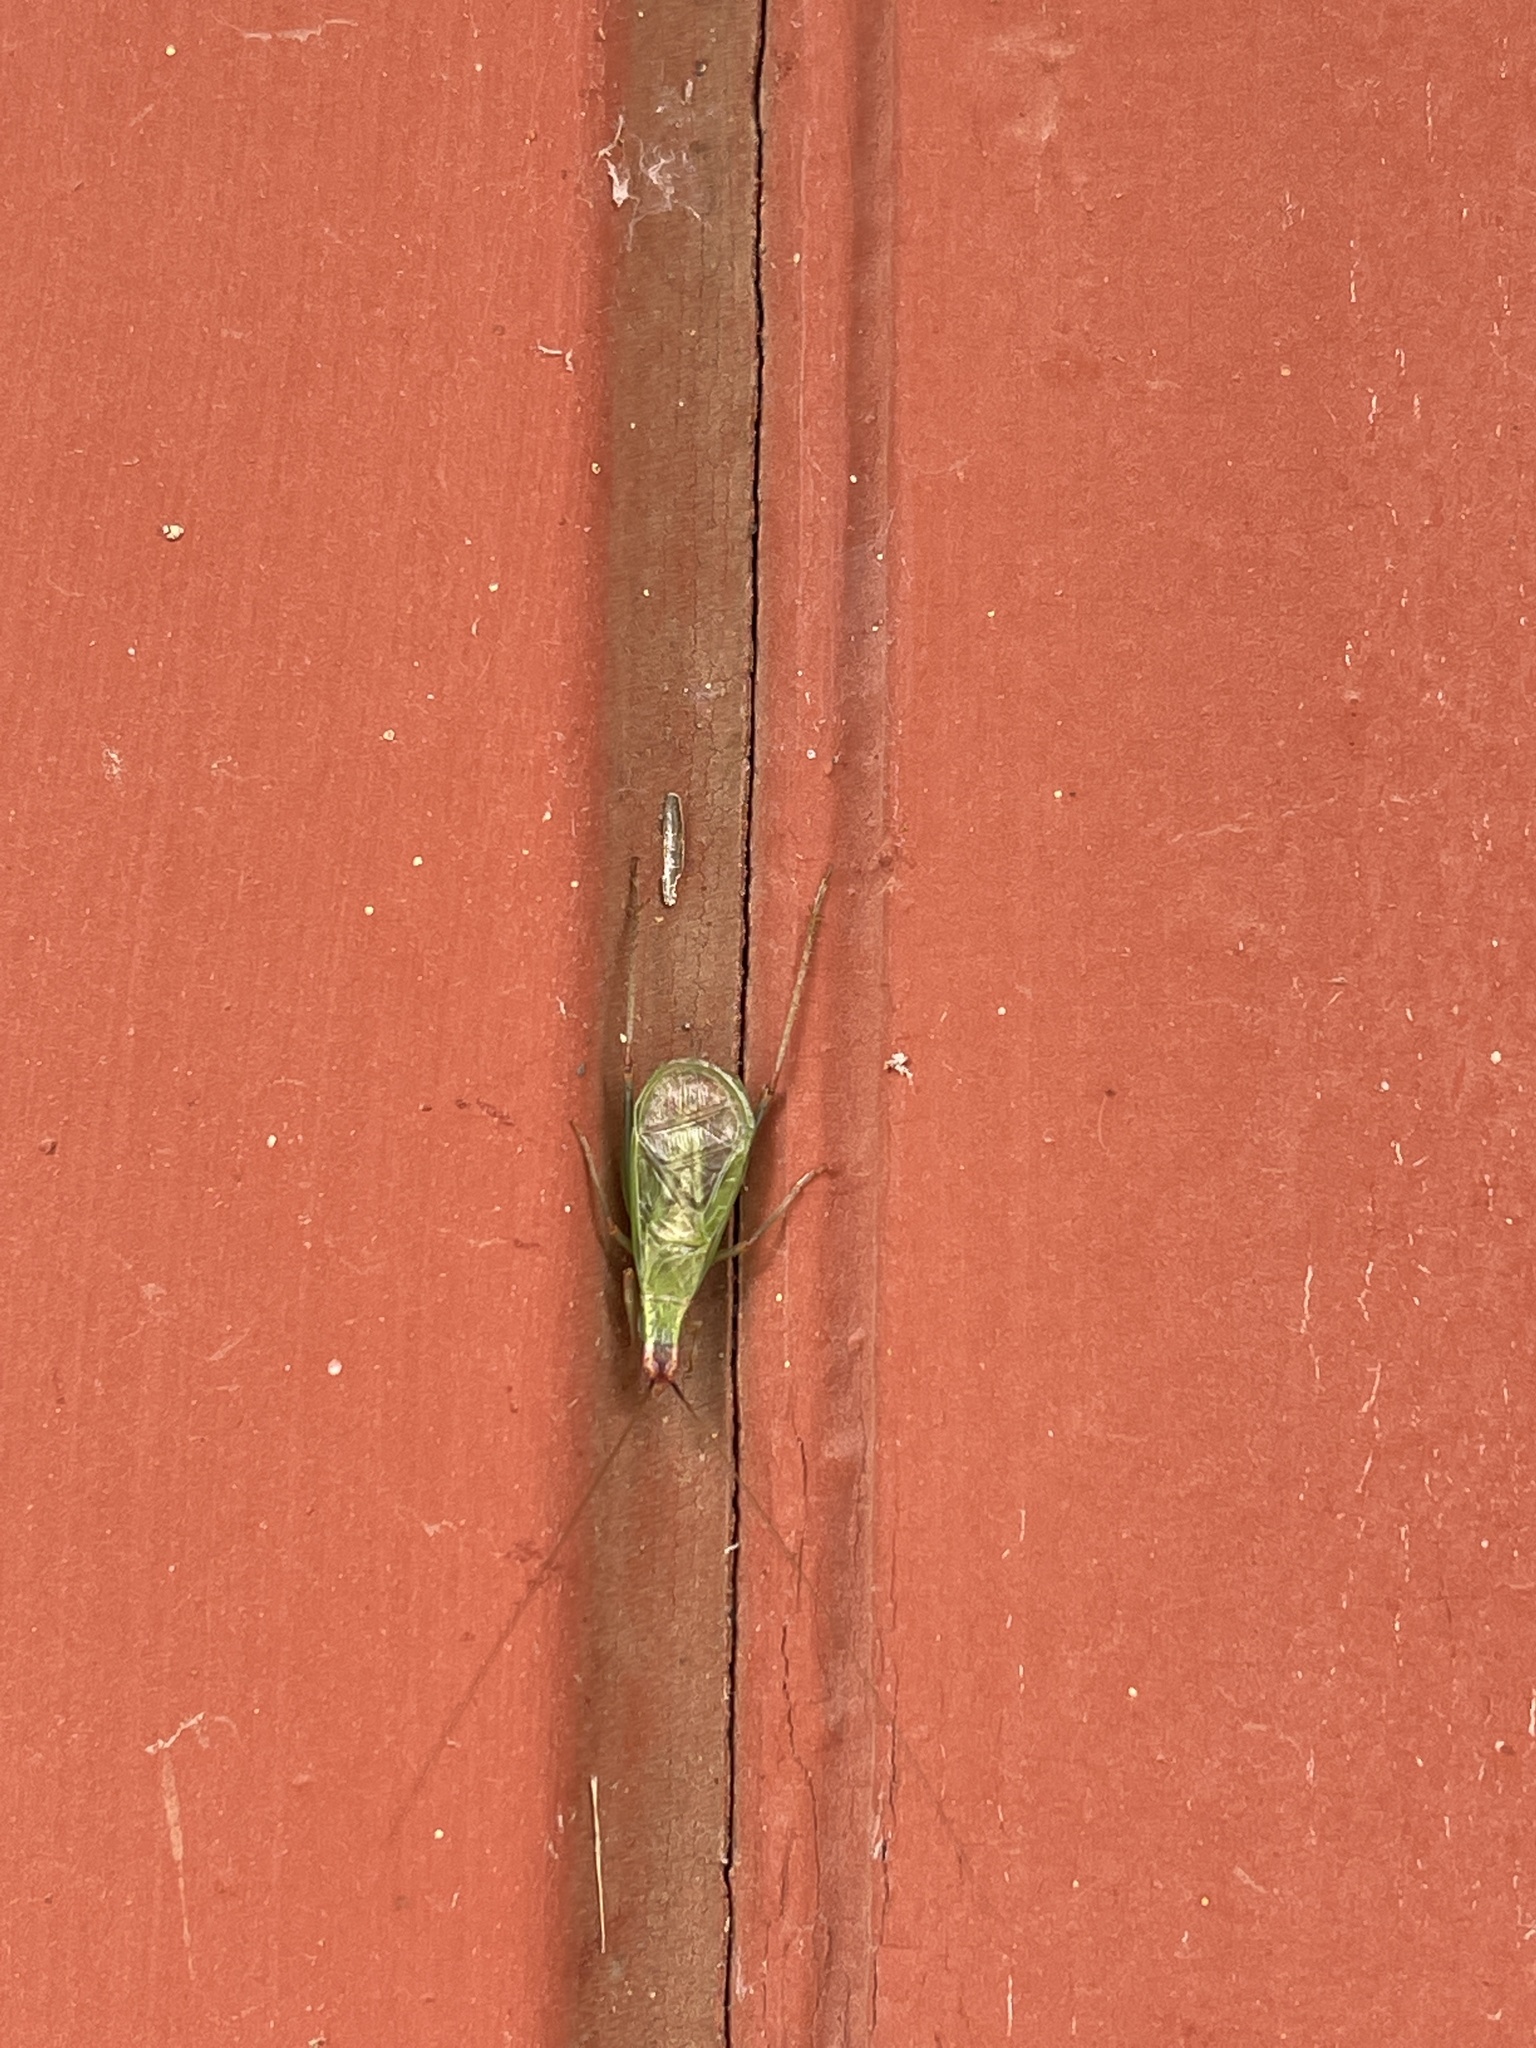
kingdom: Animalia
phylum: Arthropoda
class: Insecta
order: Orthoptera
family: Gryllidae
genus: Oecanthus
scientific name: Oecanthus californicus
